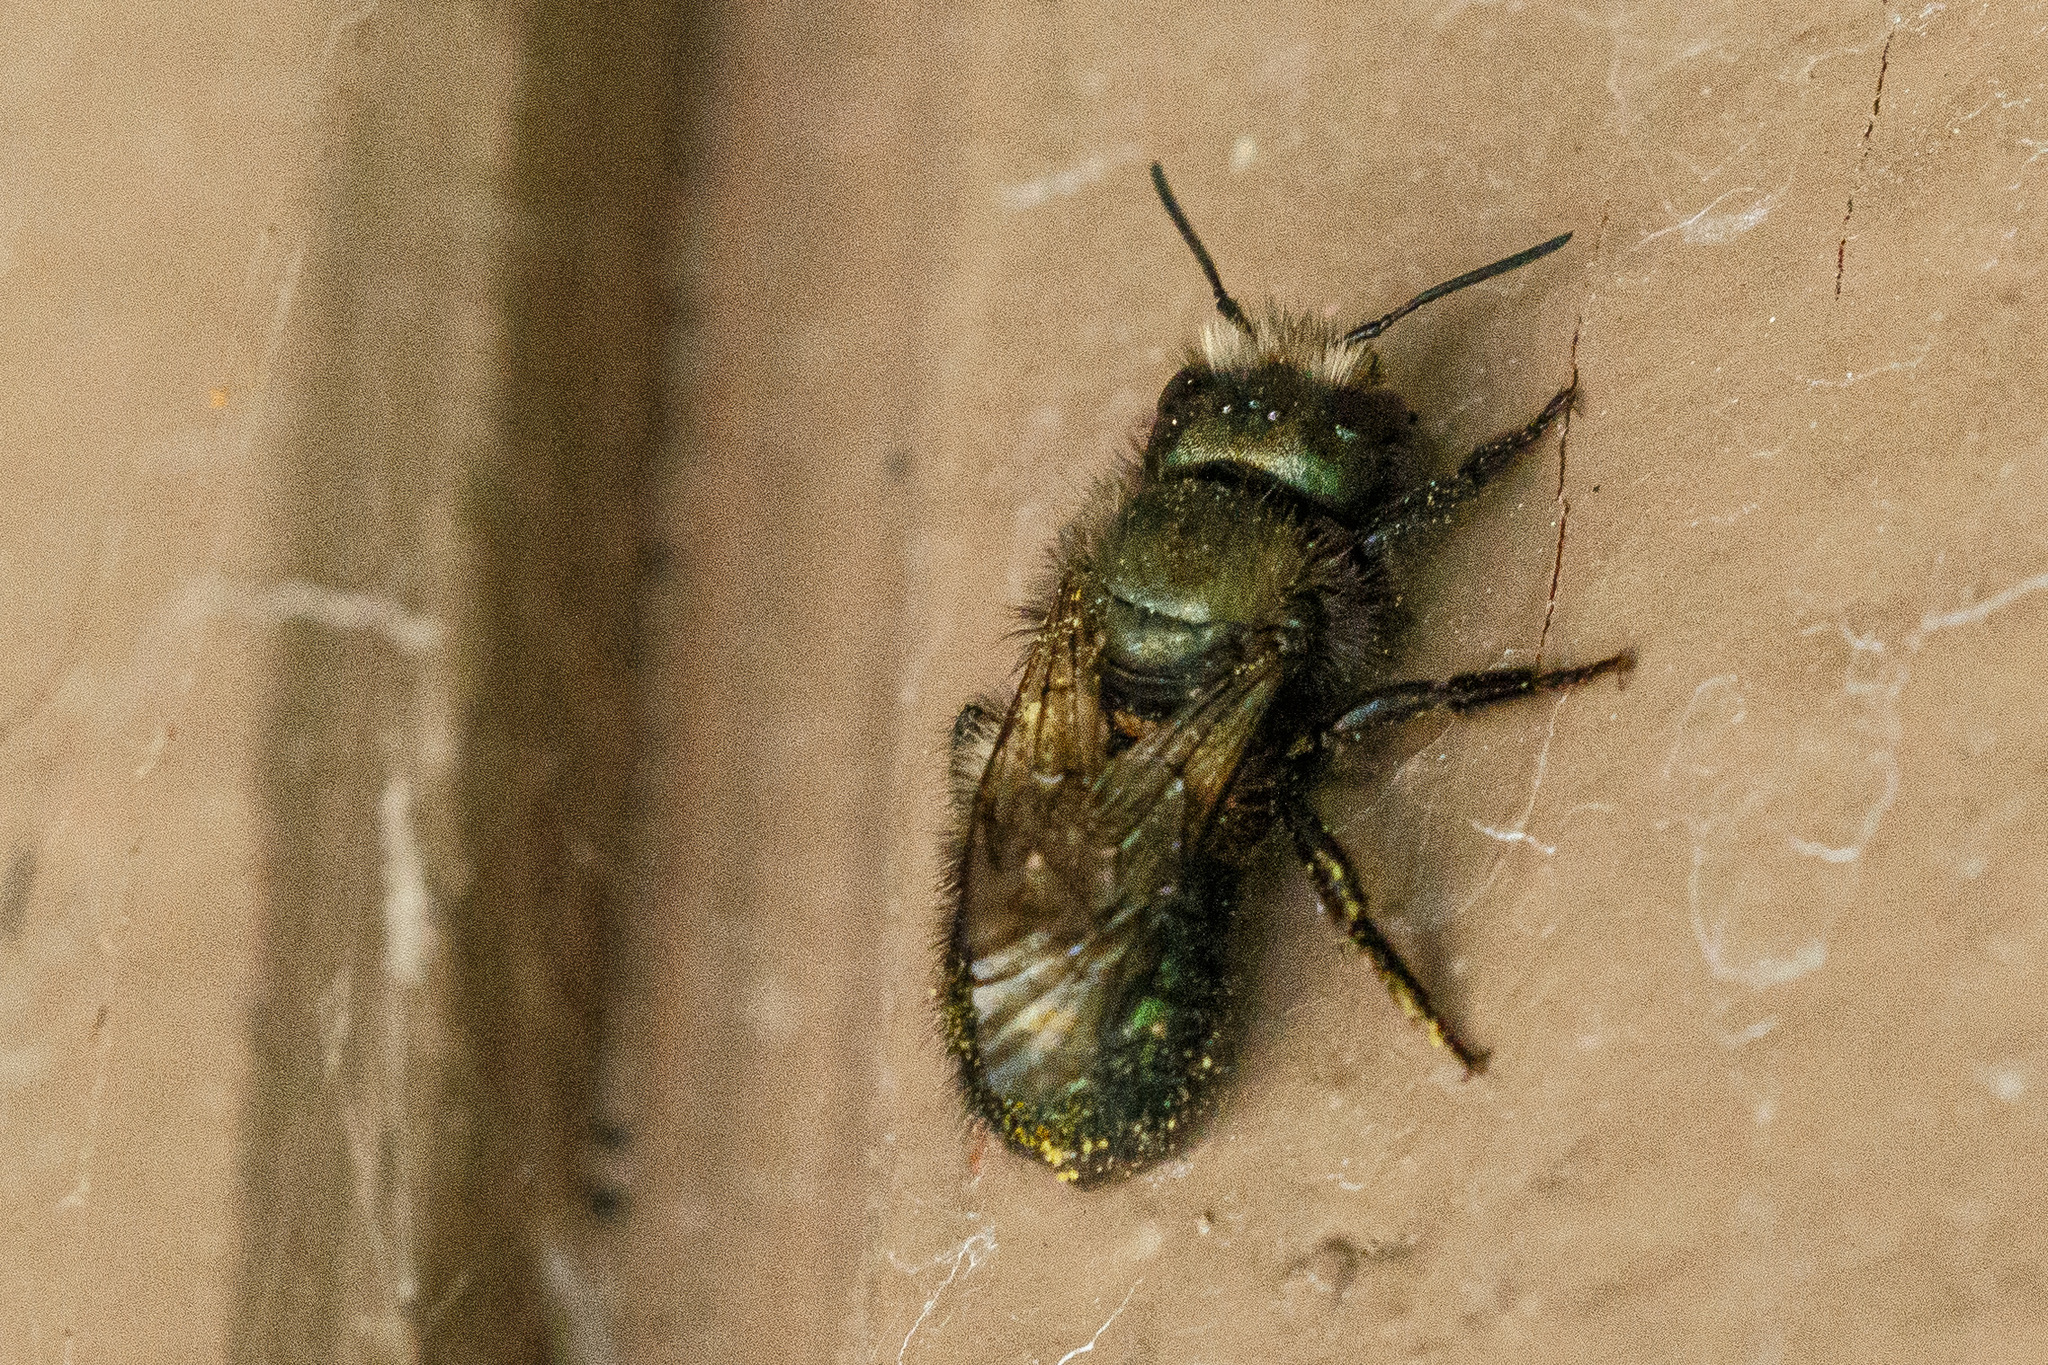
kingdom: Animalia
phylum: Arthropoda
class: Insecta
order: Hymenoptera
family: Megachilidae
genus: Osmia
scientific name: Osmia lignaria
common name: Blue orchard bee
